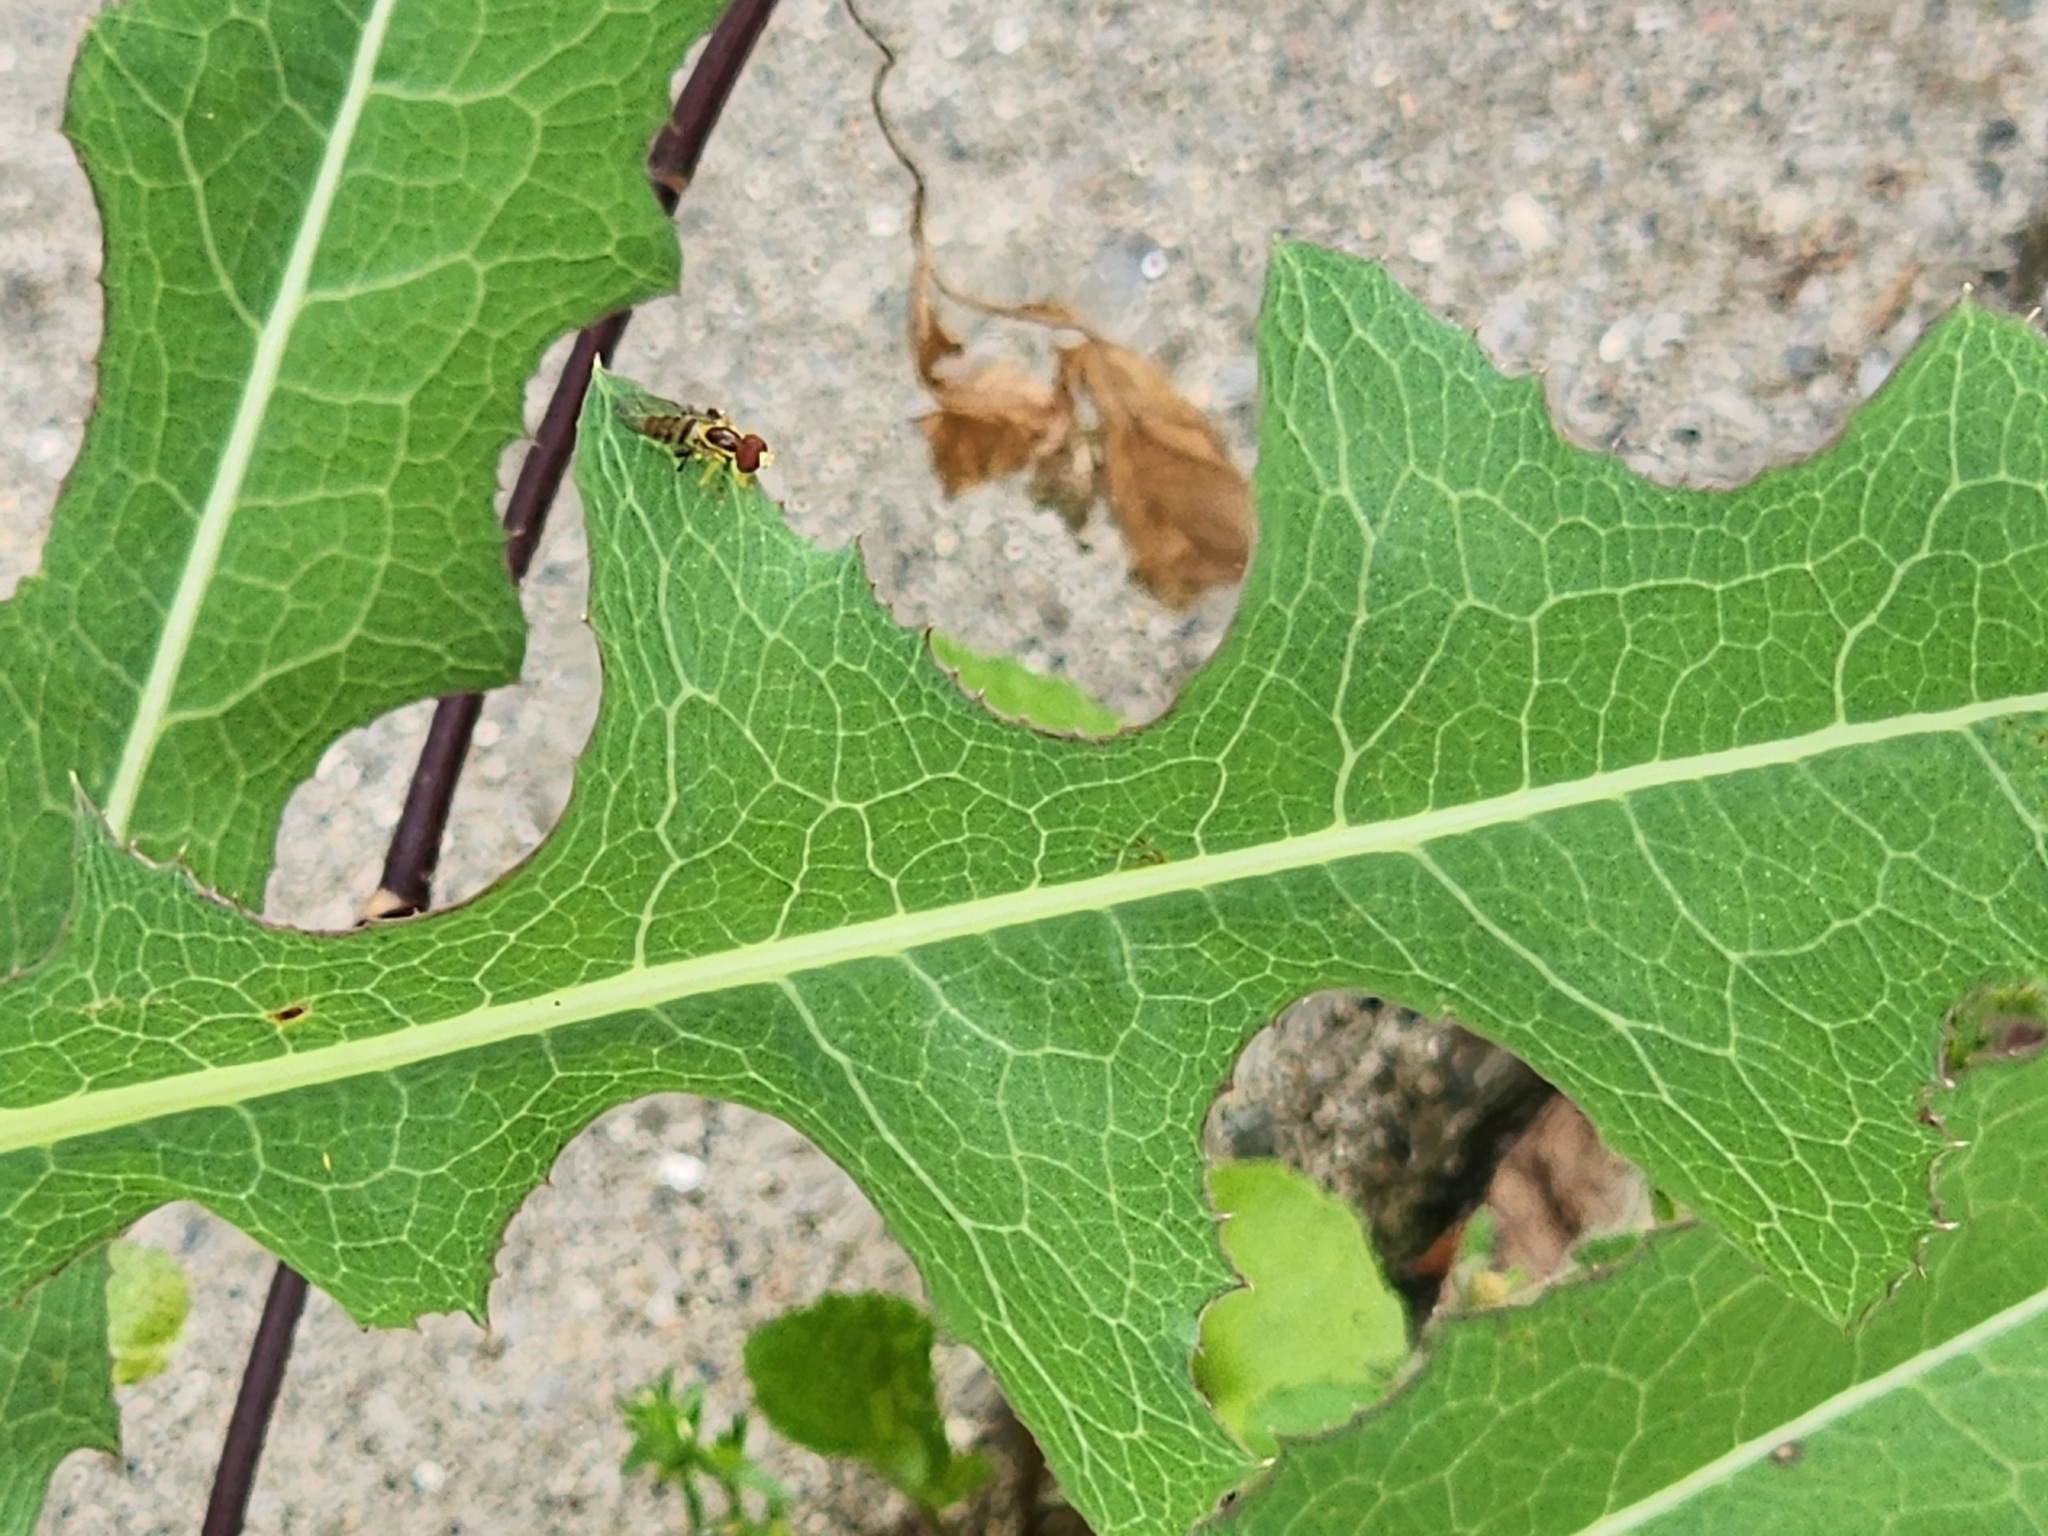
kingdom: Animalia
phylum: Arthropoda
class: Insecta
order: Diptera
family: Syrphidae
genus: Toxomerus
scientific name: Toxomerus geminatus
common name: Eastern calligrapher
